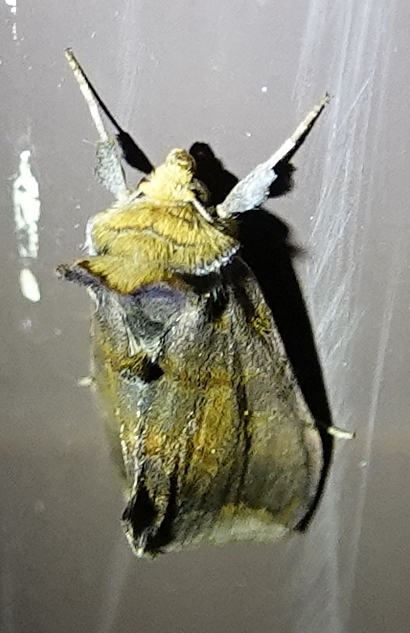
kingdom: Animalia
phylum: Arthropoda
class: Insecta
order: Lepidoptera
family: Noctuidae
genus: Allagrapha
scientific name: Allagrapha aerea
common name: Unspotted looper moth
